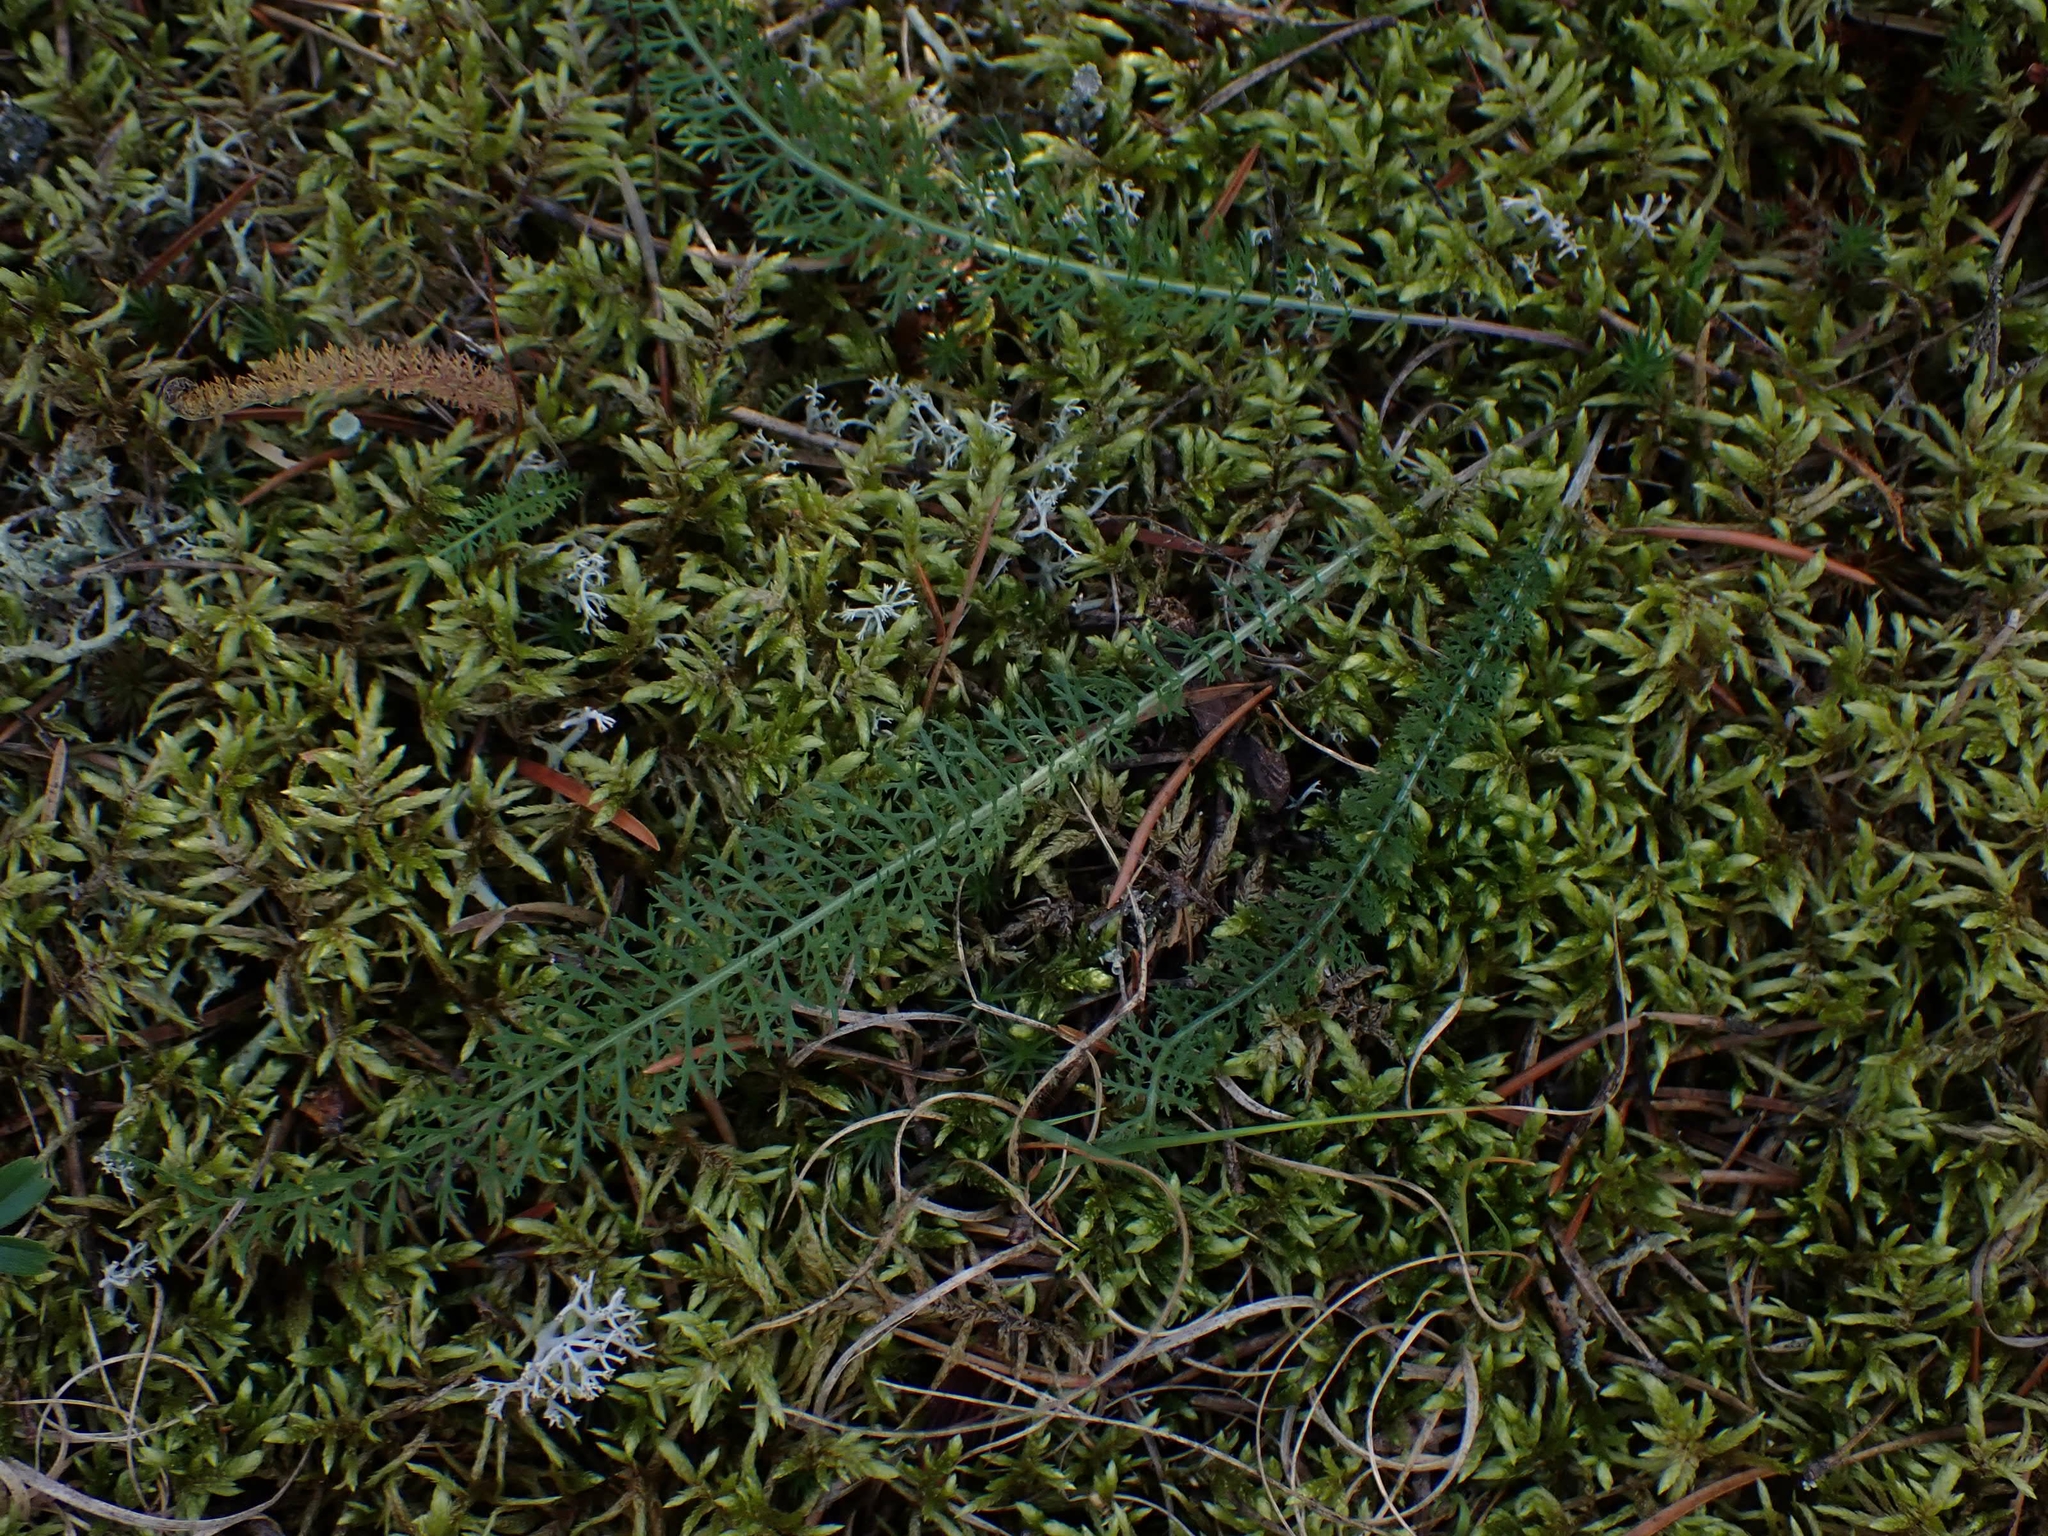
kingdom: Plantae
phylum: Tracheophyta
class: Magnoliopsida
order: Asterales
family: Asteraceae
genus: Achillea
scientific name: Achillea millefolium
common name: Yarrow
